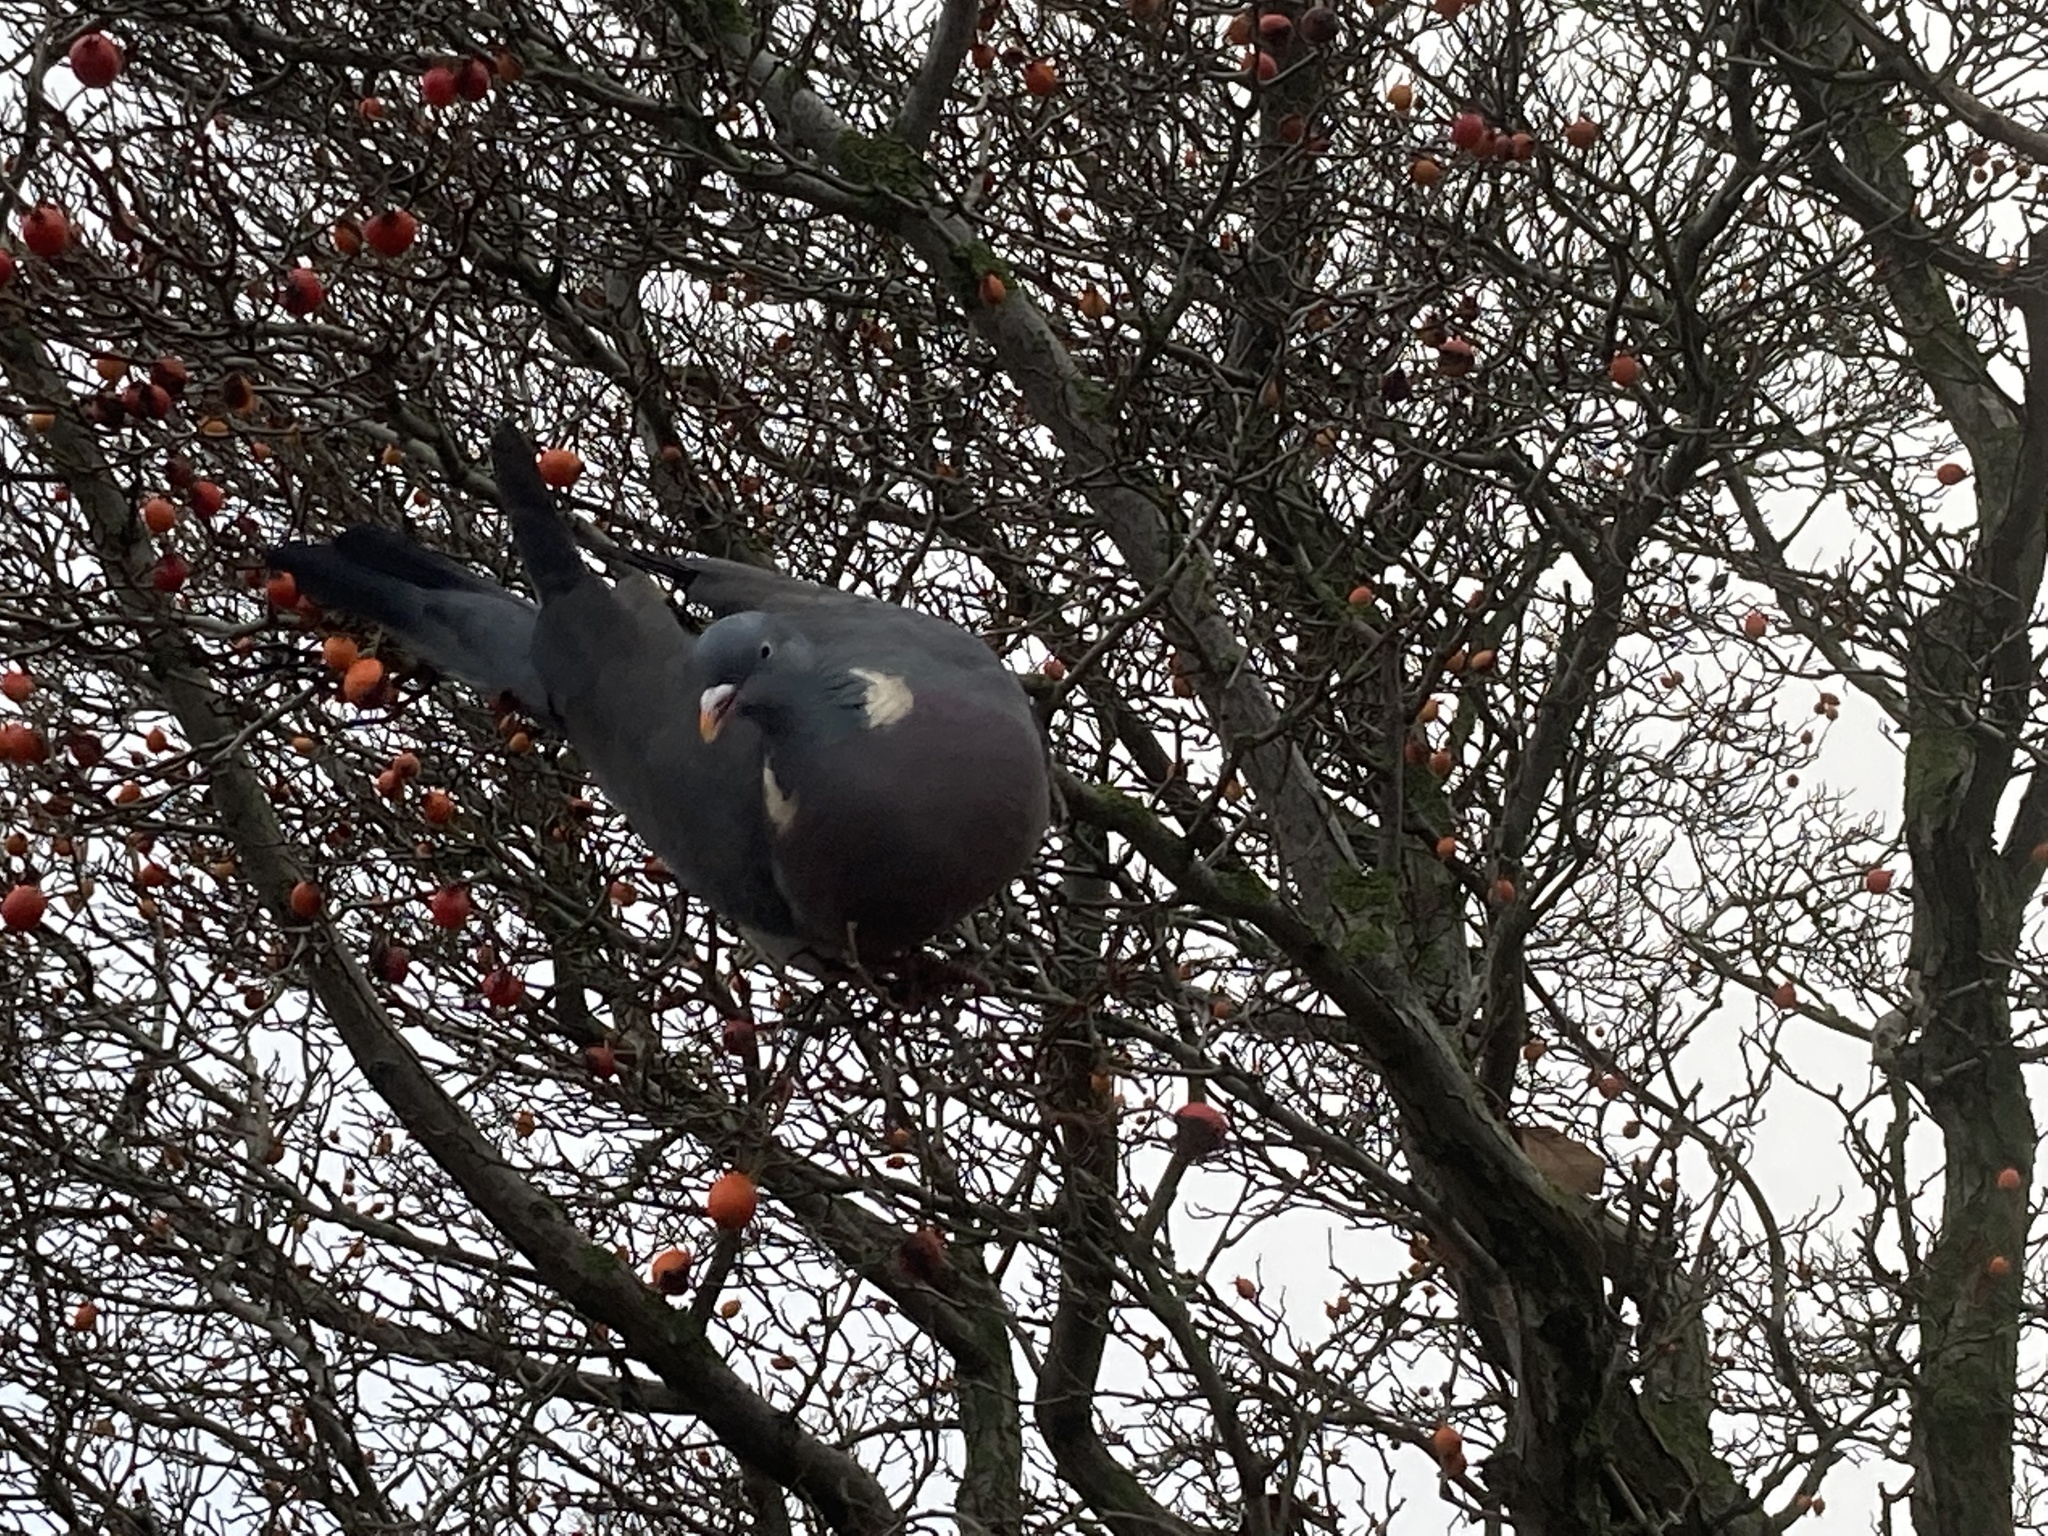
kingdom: Animalia
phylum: Chordata
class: Aves
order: Columbiformes
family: Columbidae
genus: Columba
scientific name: Columba palumbus
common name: Common wood pigeon
